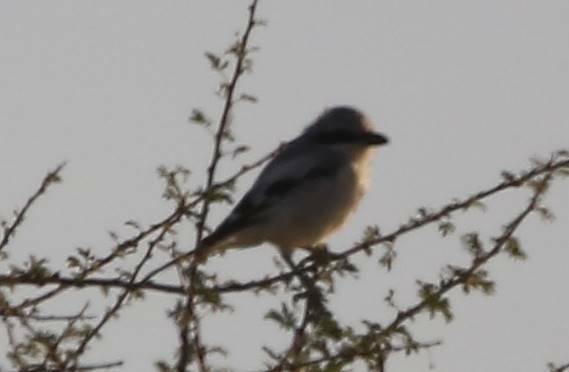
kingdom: Animalia
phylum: Chordata
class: Aves
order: Passeriformes
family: Laniidae
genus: Lanius
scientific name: Lanius excubitor
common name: Great grey shrike
